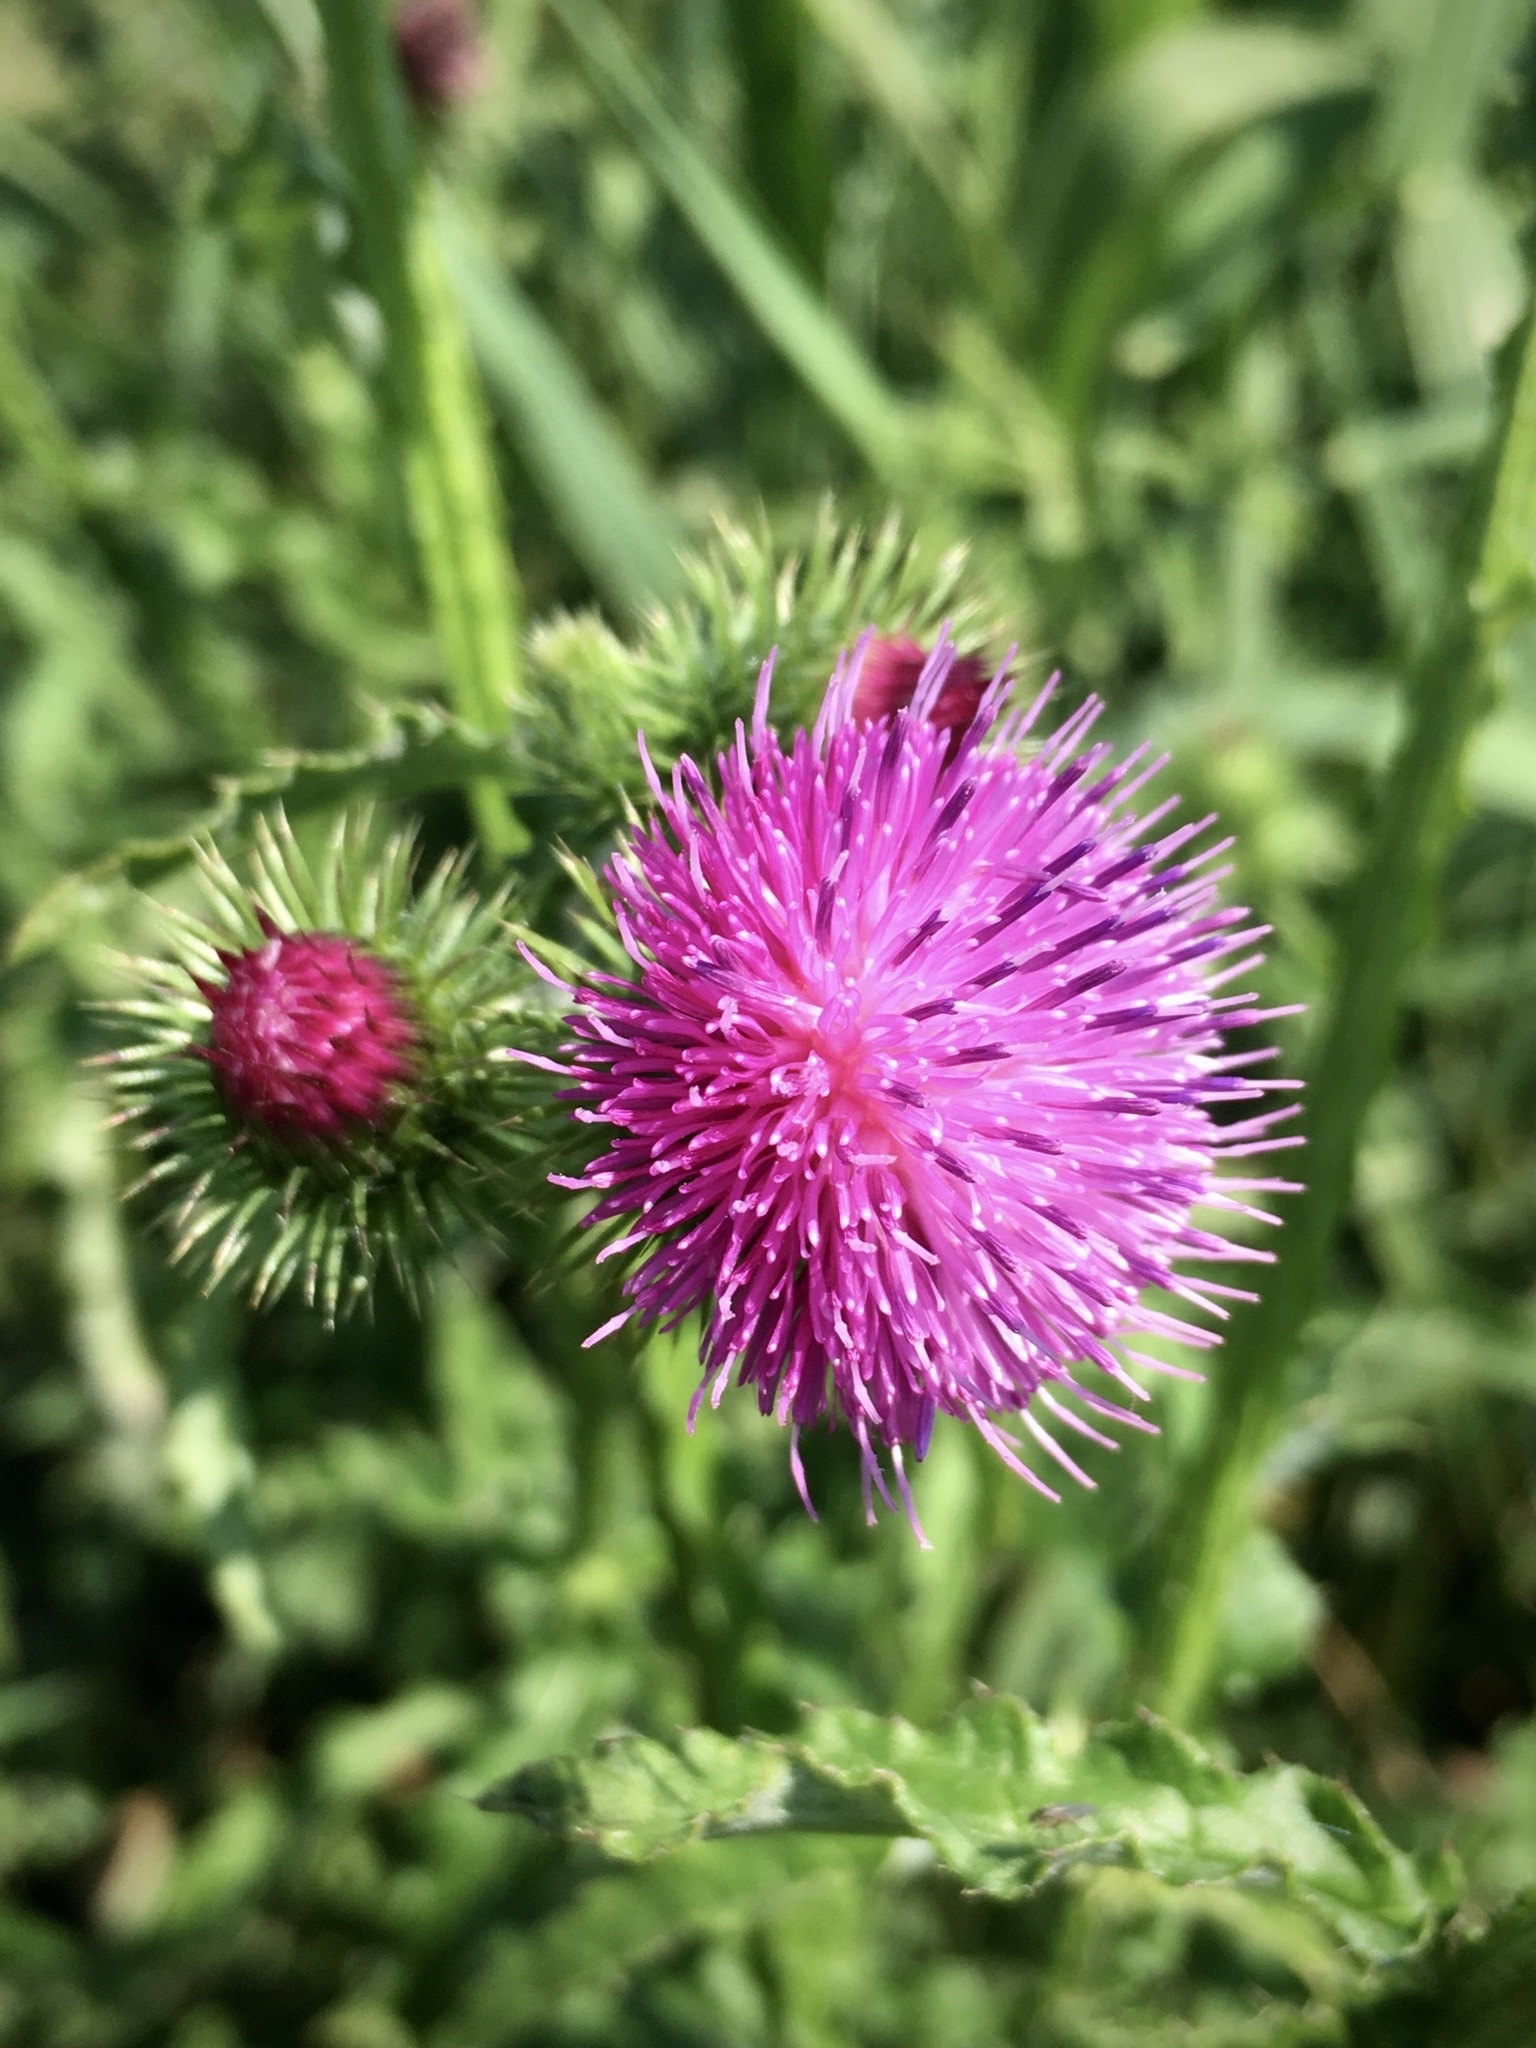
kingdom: Plantae
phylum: Tracheophyta
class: Magnoliopsida
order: Asterales
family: Asteraceae
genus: Carduus
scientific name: Carduus crispus
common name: Welted thistle
